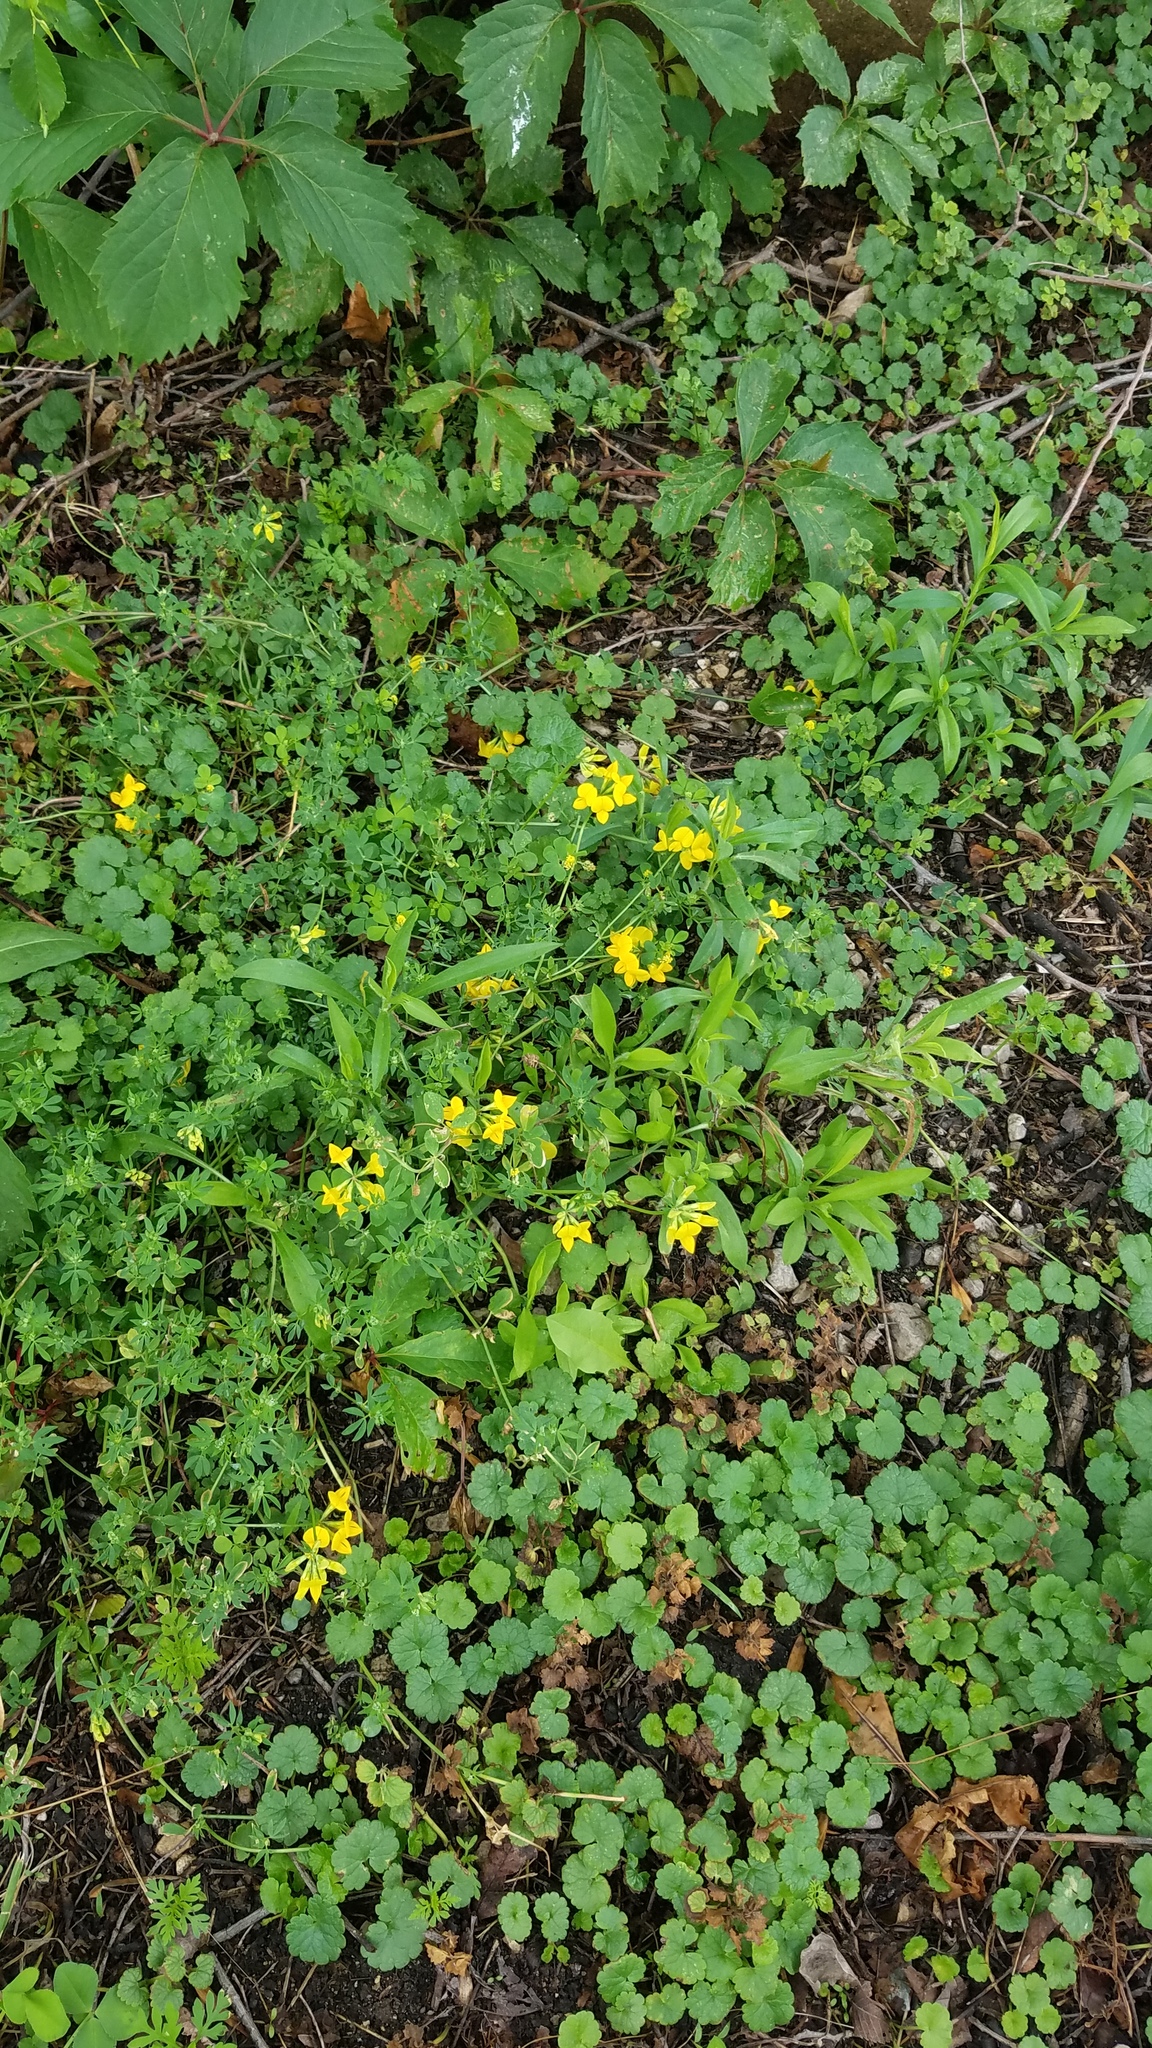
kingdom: Plantae
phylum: Tracheophyta
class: Magnoliopsida
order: Fabales
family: Fabaceae
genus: Lotus
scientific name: Lotus corniculatus
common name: Common bird's-foot-trefoil
